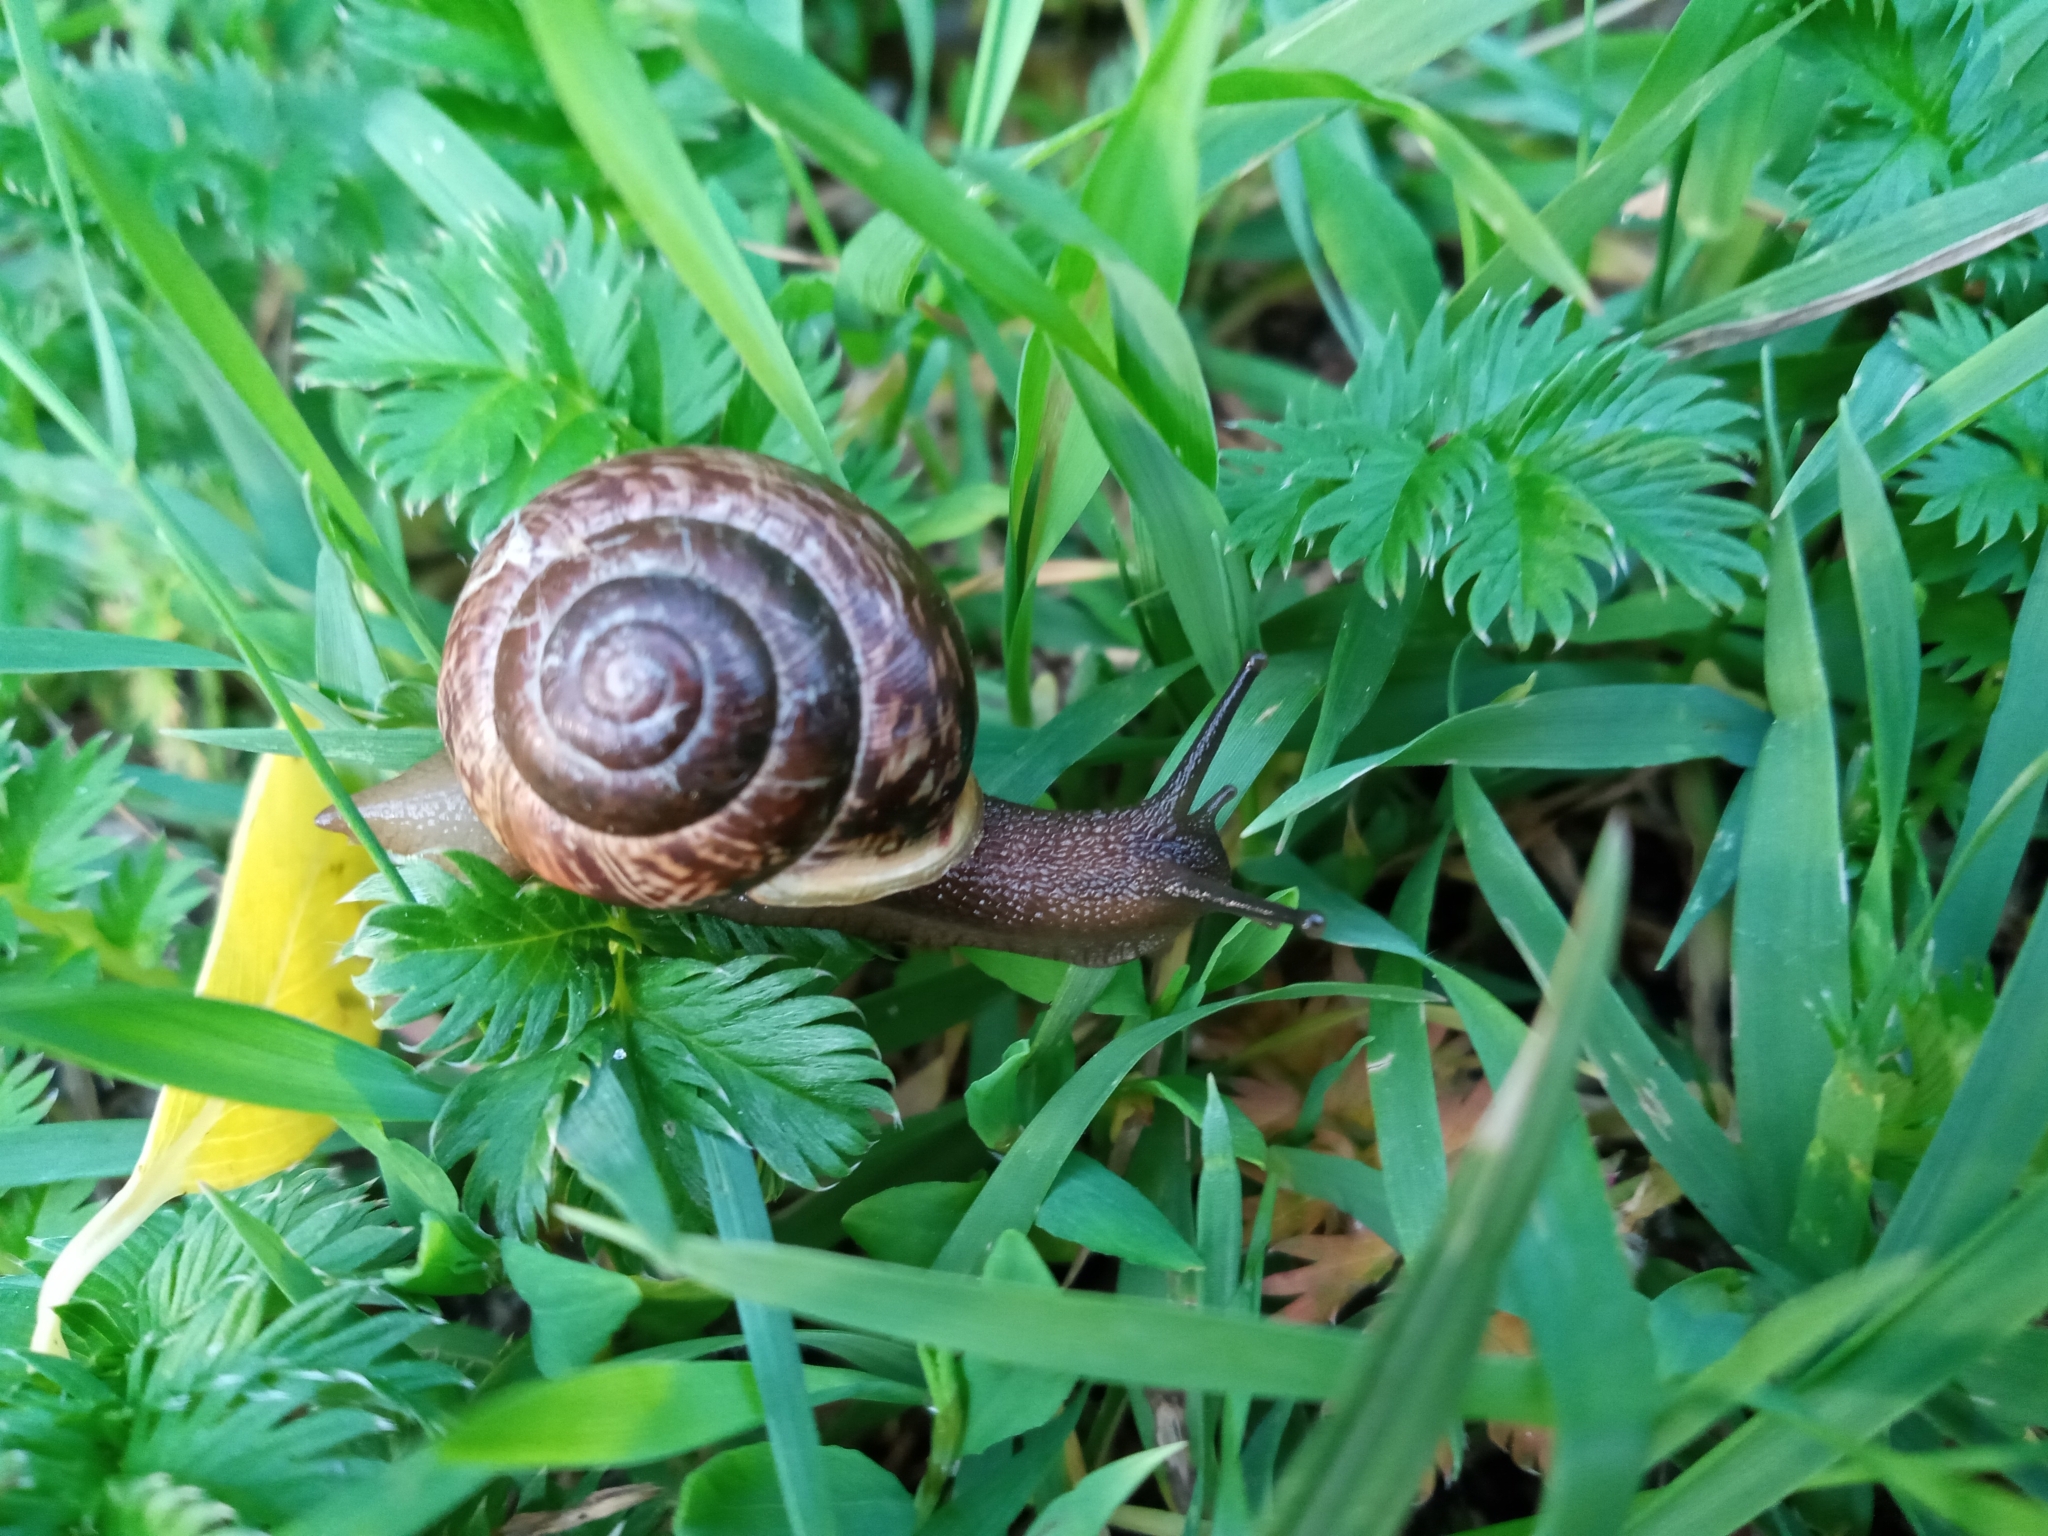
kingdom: Animalia
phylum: Mollusca
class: Gastropoda
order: Stylommatophora
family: Helicidae
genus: Arianta
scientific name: Arianta arbustorum
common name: Copse snail
